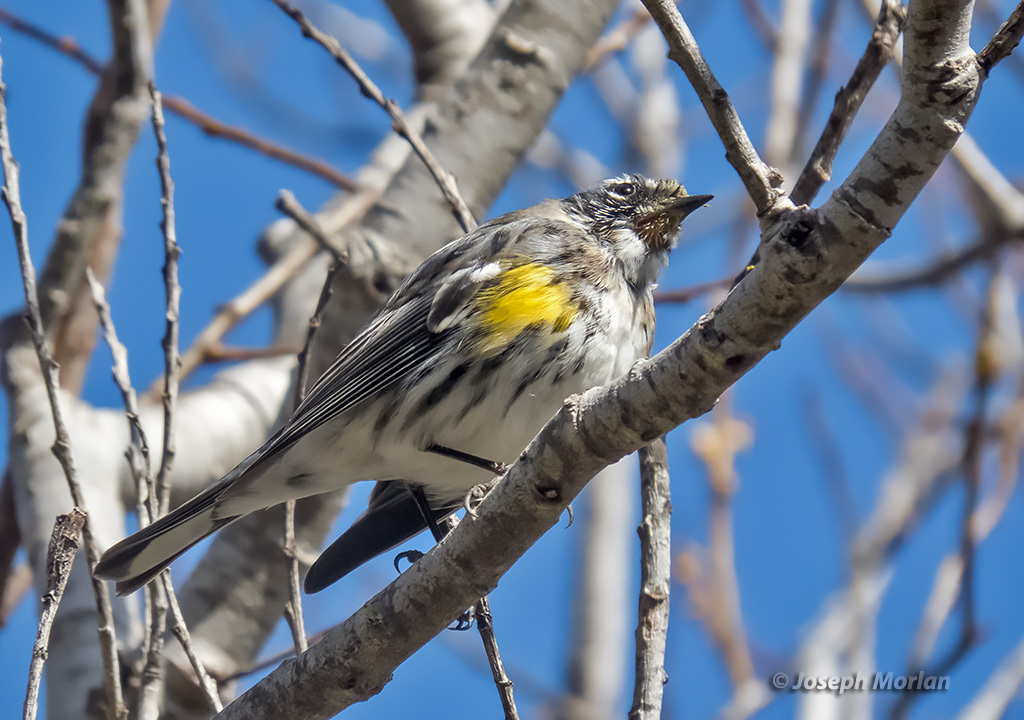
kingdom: Animalia
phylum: Chordata
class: Aves
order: Passeriformes
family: Parulidae
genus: Setophaga
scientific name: Setophaga coronata
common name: Myrtle warbler
